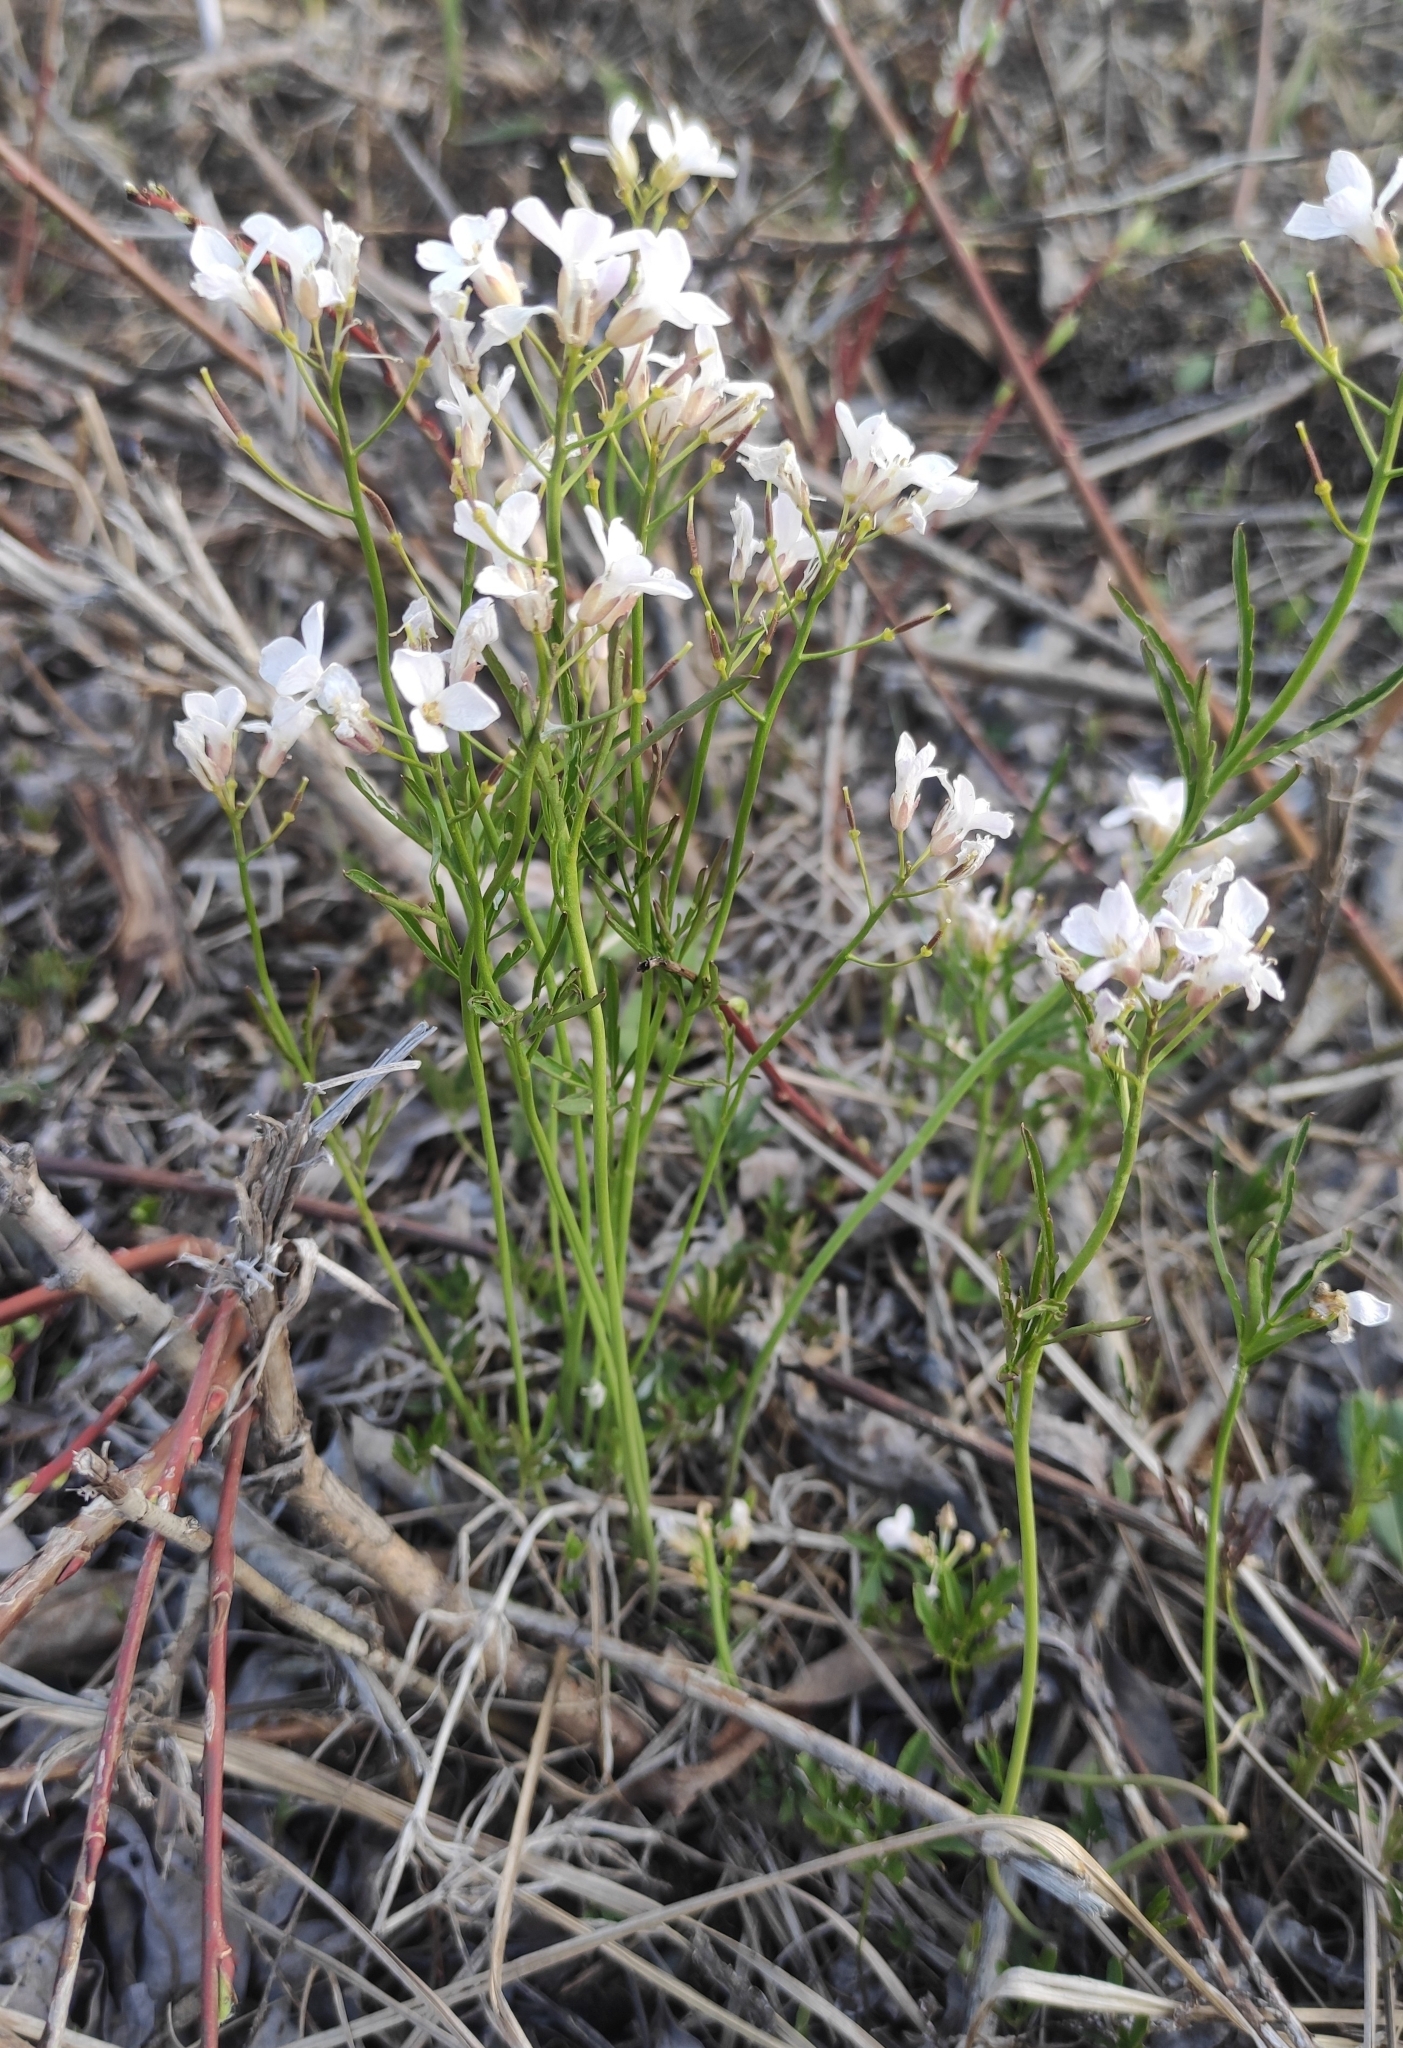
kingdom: Plantae
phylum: Tracheophyta
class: Magnoliopsida
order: Brassicales
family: Brassicaceae
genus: Cardamine
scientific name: Cardamine trifida
